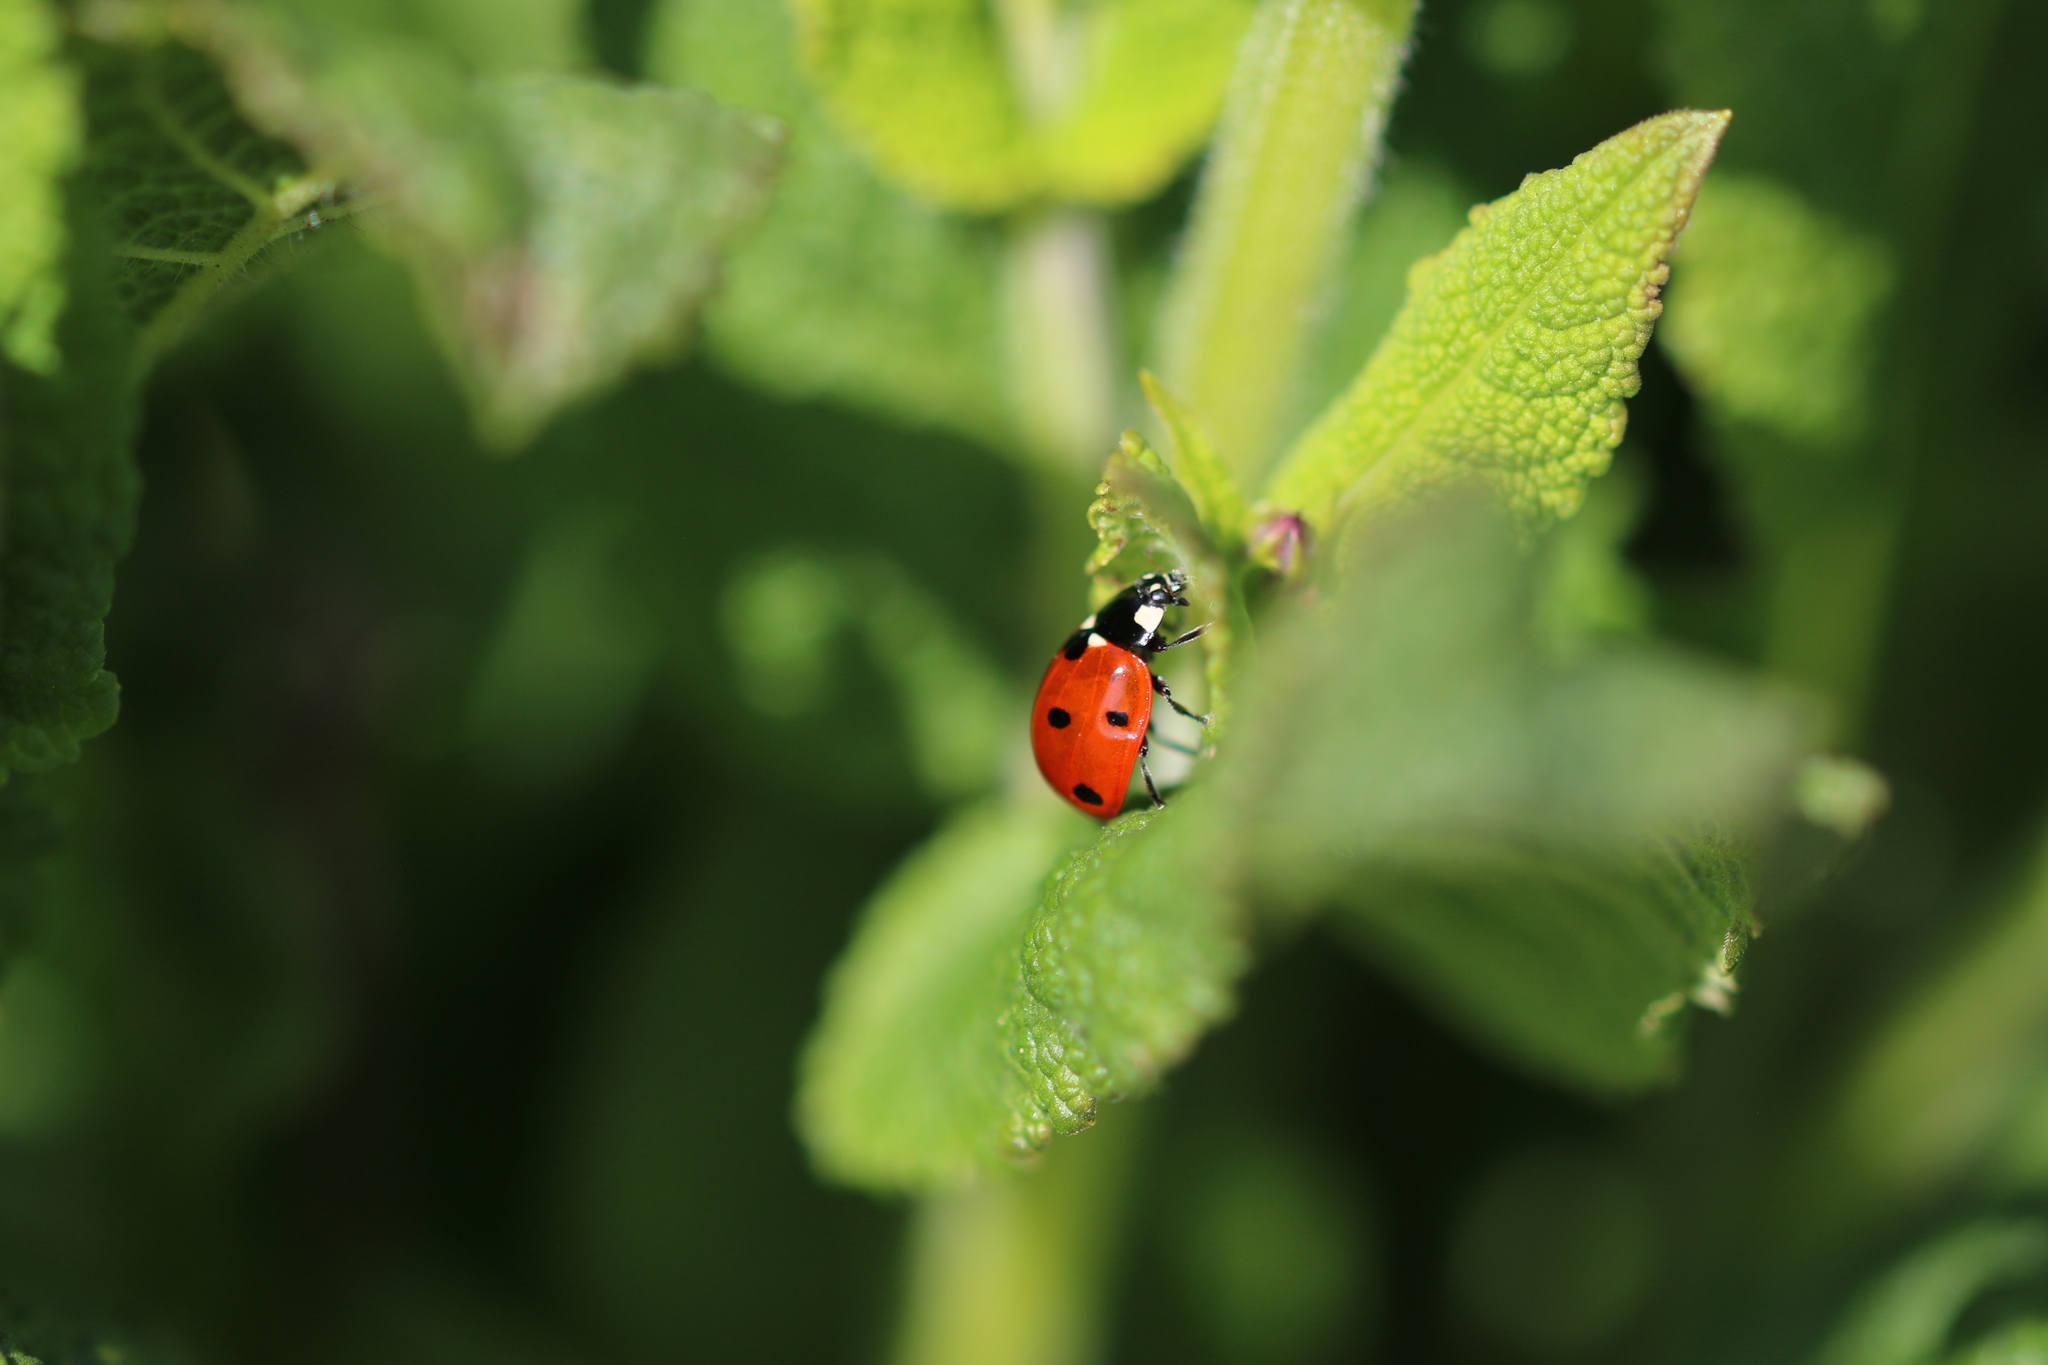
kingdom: Animalia
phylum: Arthropoda
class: Insecta
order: Coleoptera
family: Coccinellidae
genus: Coccinella
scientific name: Coccinella septempunctata
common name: Sevenspotted lady beetle
